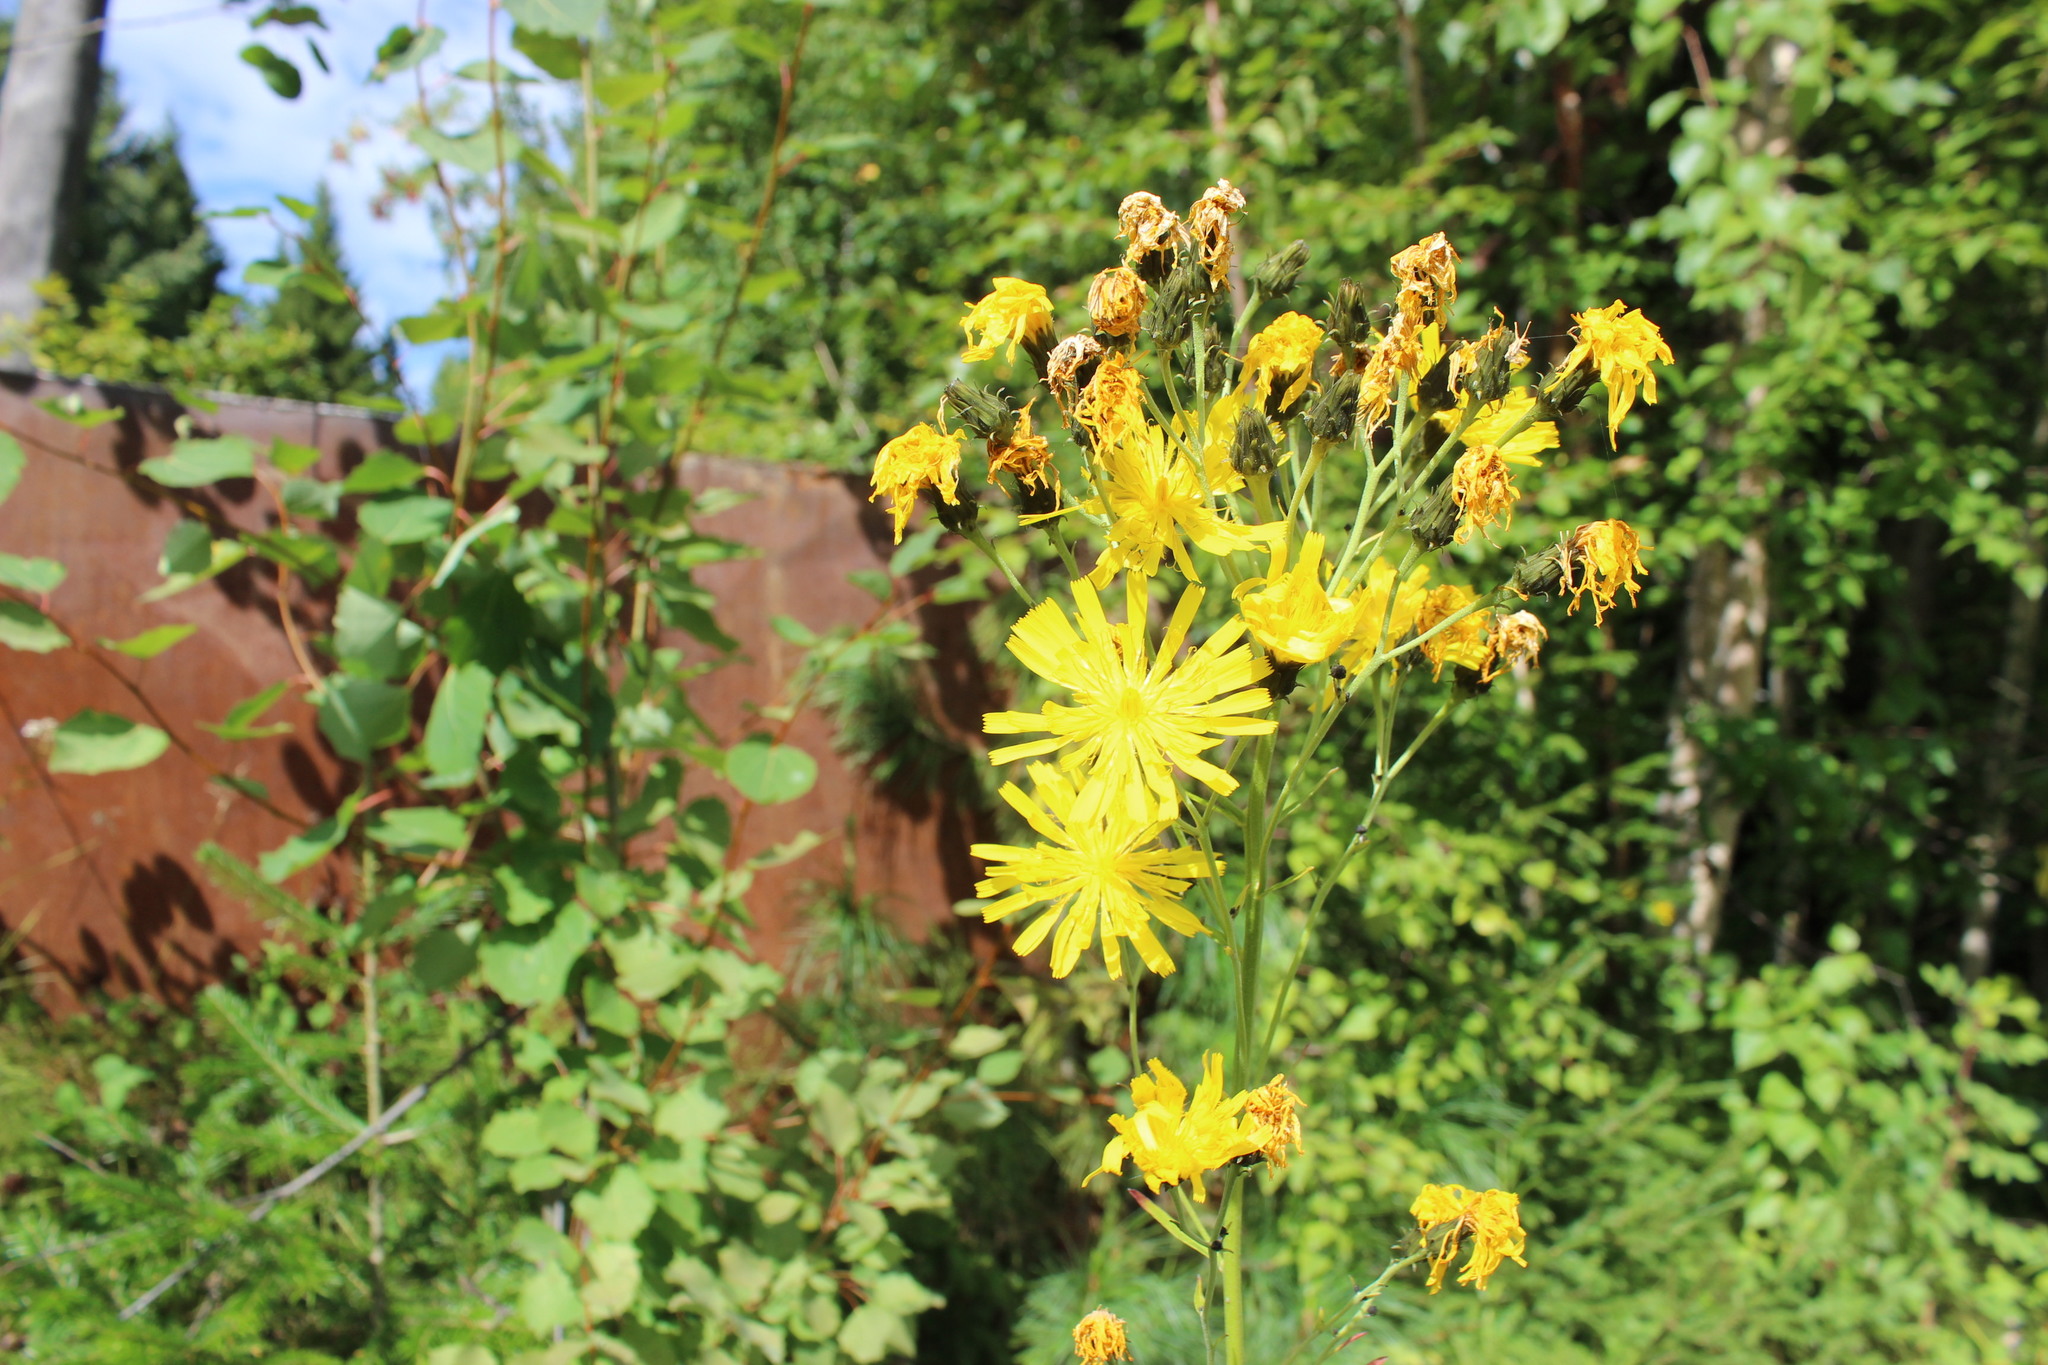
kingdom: Plantae
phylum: Tracheophyta
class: Magnoliopsida
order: Asterales
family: Asteraceae
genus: Hieracium
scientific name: Hieracium umbellatum
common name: Northern hawkweed
